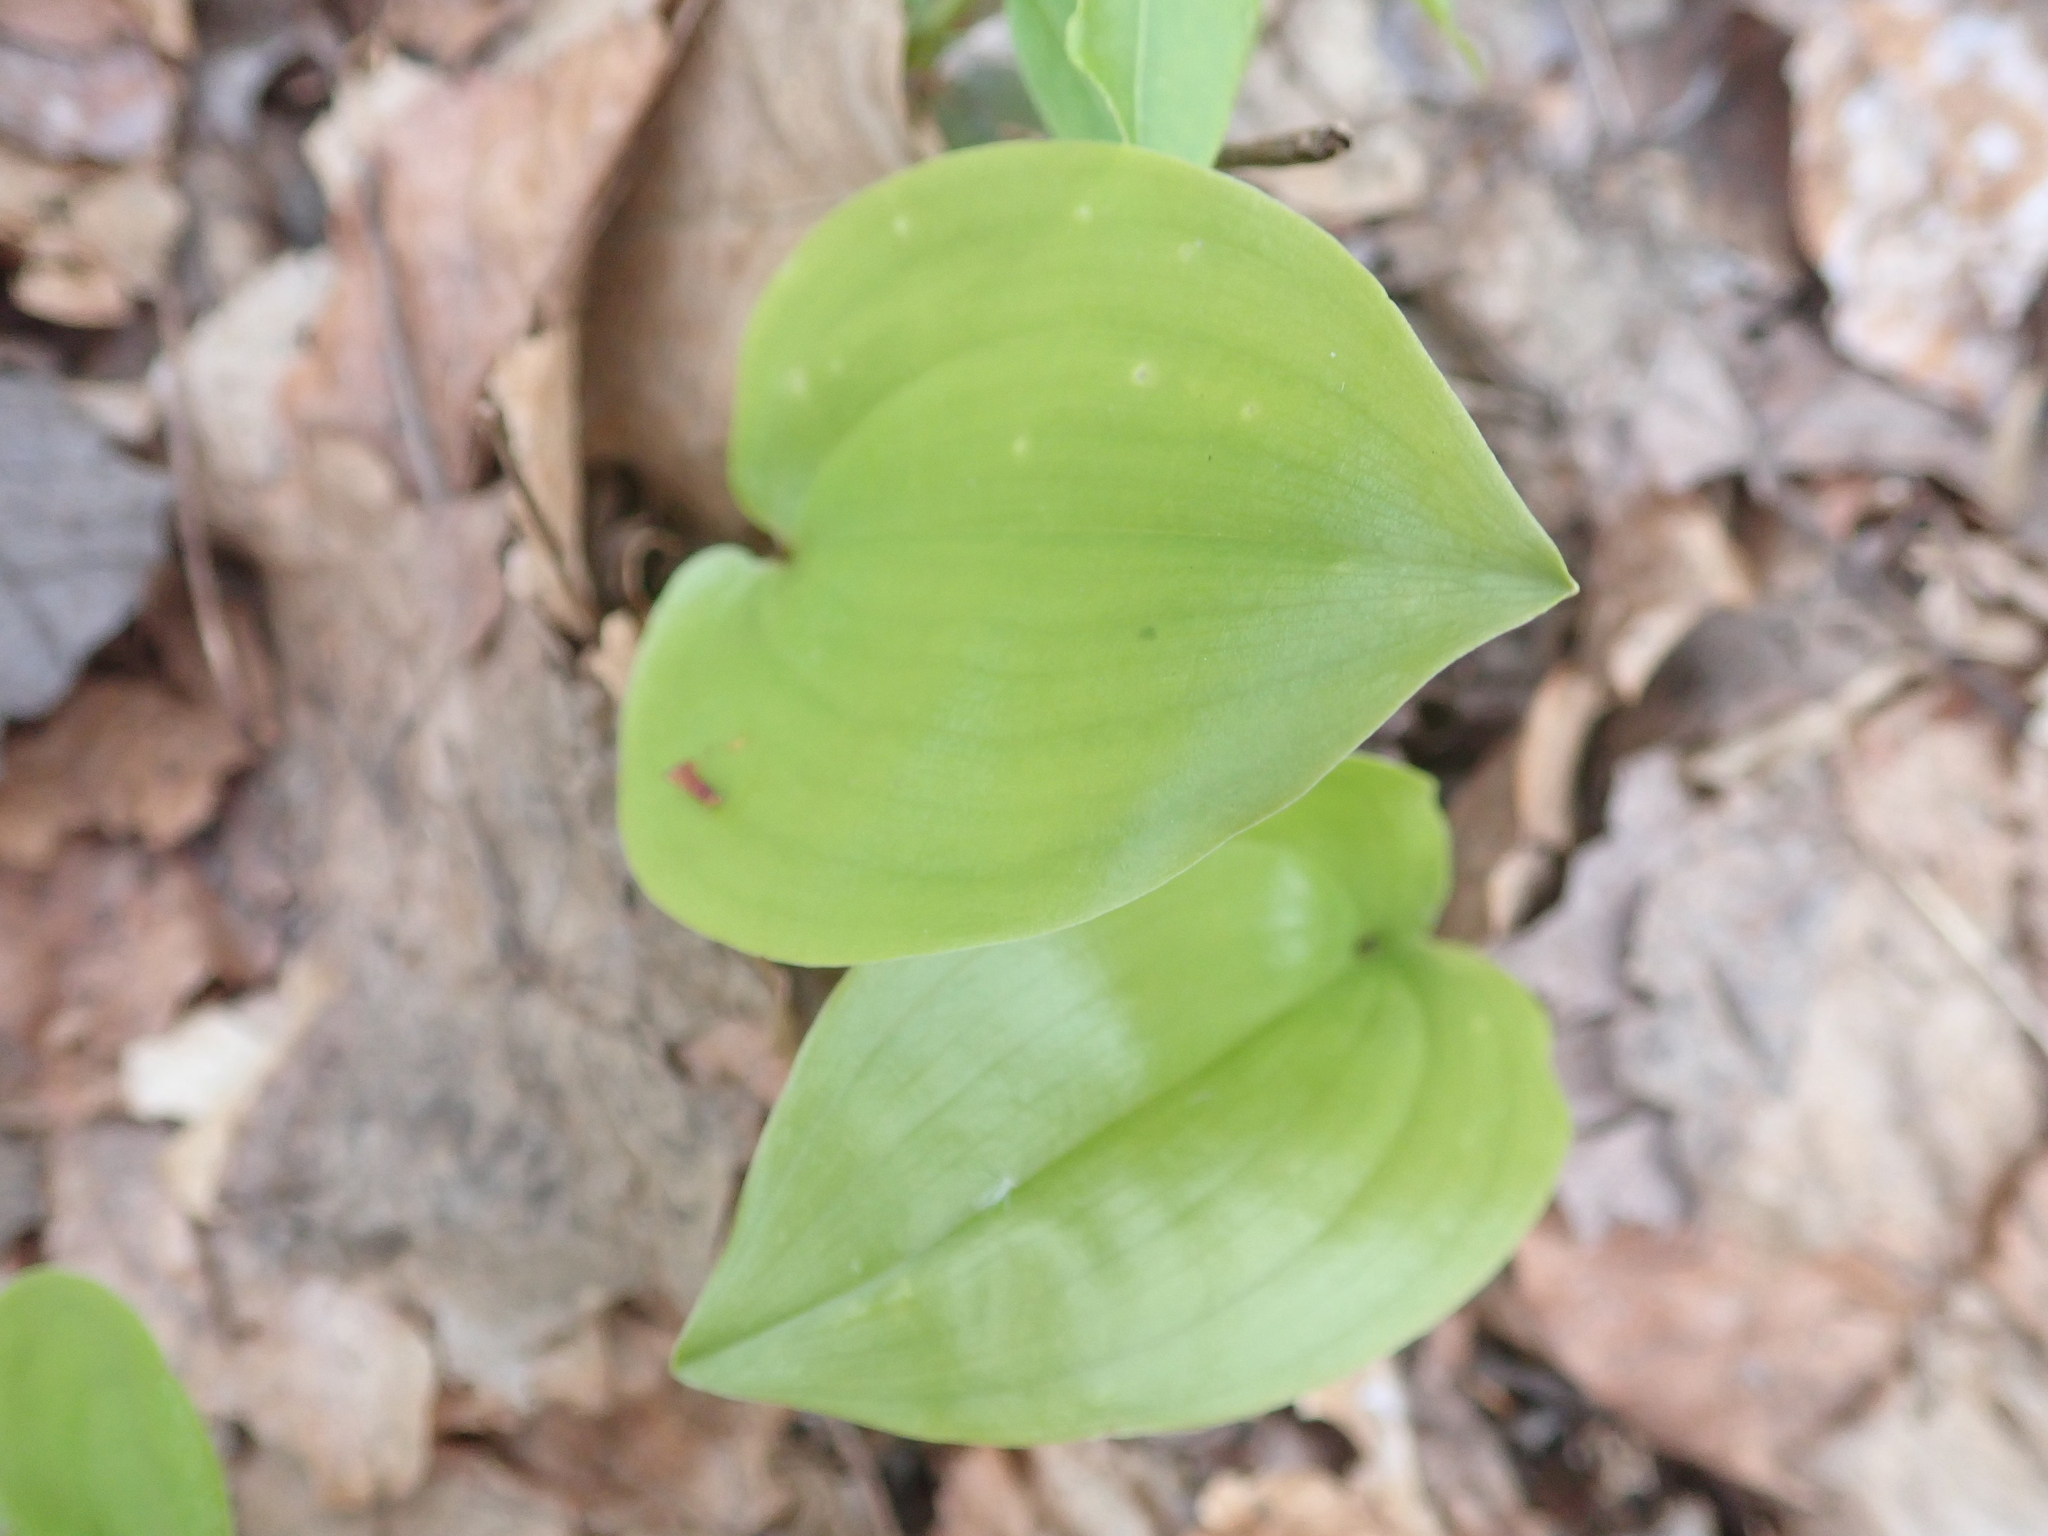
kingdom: Plantae
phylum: Tracheophyta
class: Liliopsida
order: Asparagales
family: Asparagaceae
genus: Maianthemum
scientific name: Maianthemum canadense
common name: False lily-of-the-valley
